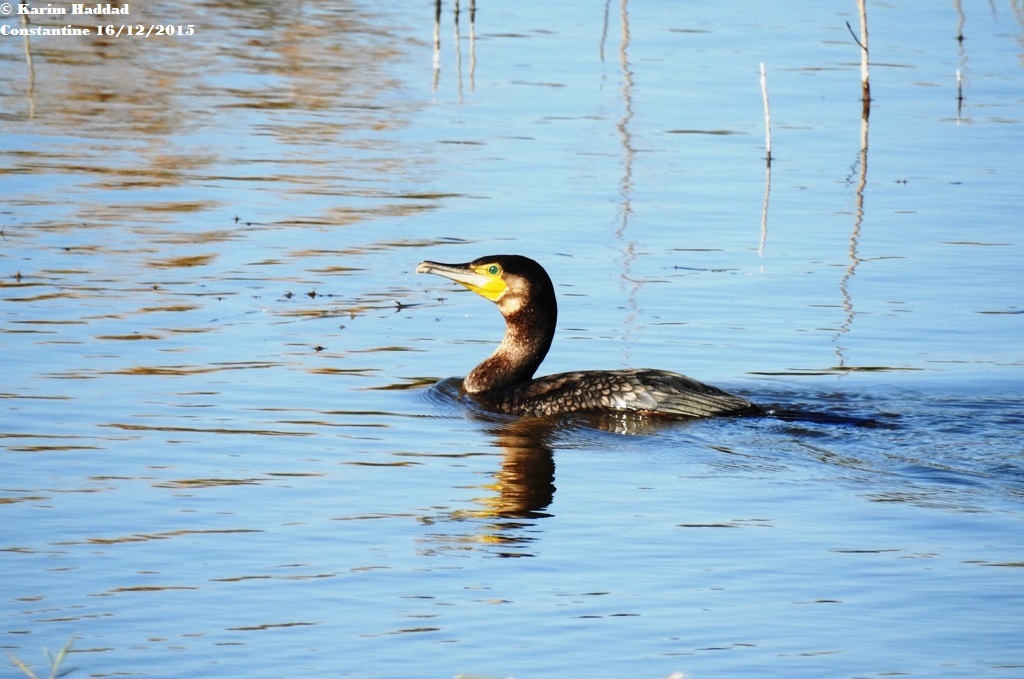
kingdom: Animalia
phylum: Chordata
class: Aves
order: Suliformes
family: Phalacrocoracidae
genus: Phalacrocorax
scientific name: Phalacrocorax carbo
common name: Great cormorant
